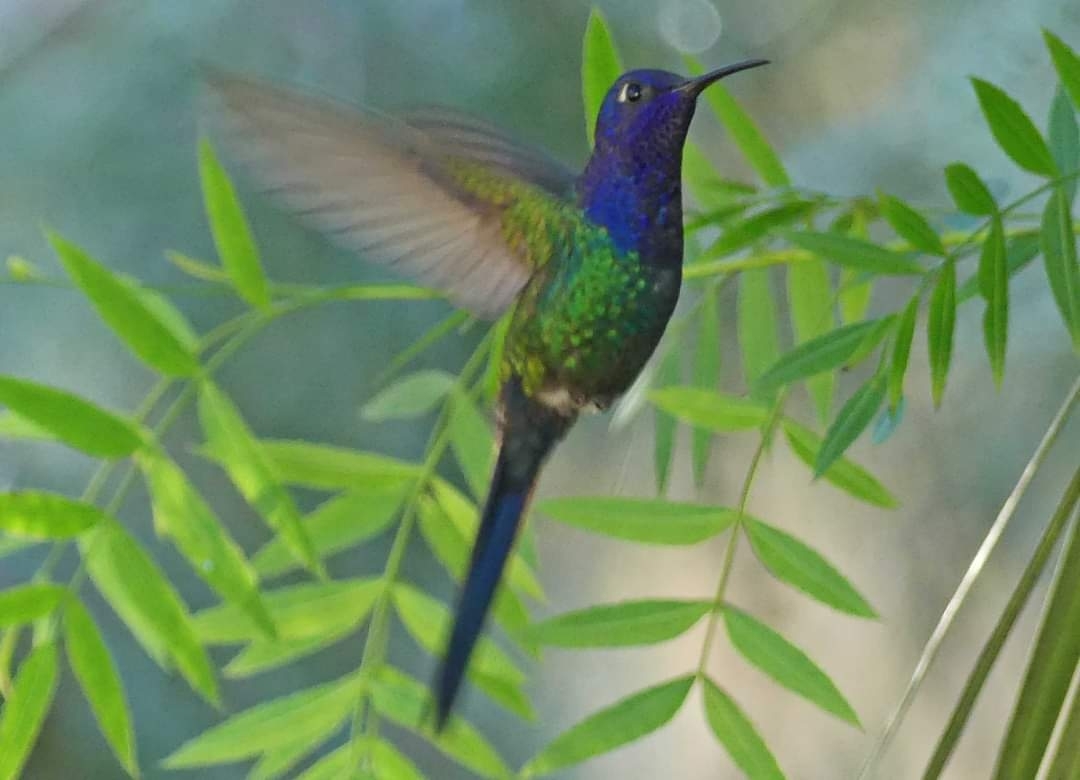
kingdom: Animalia
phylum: Chordata
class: Aves
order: Apodiformes
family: Trochilidae
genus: Eupetomena
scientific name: Eupetomena macroura
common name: Swallow-tailed hummingbird
